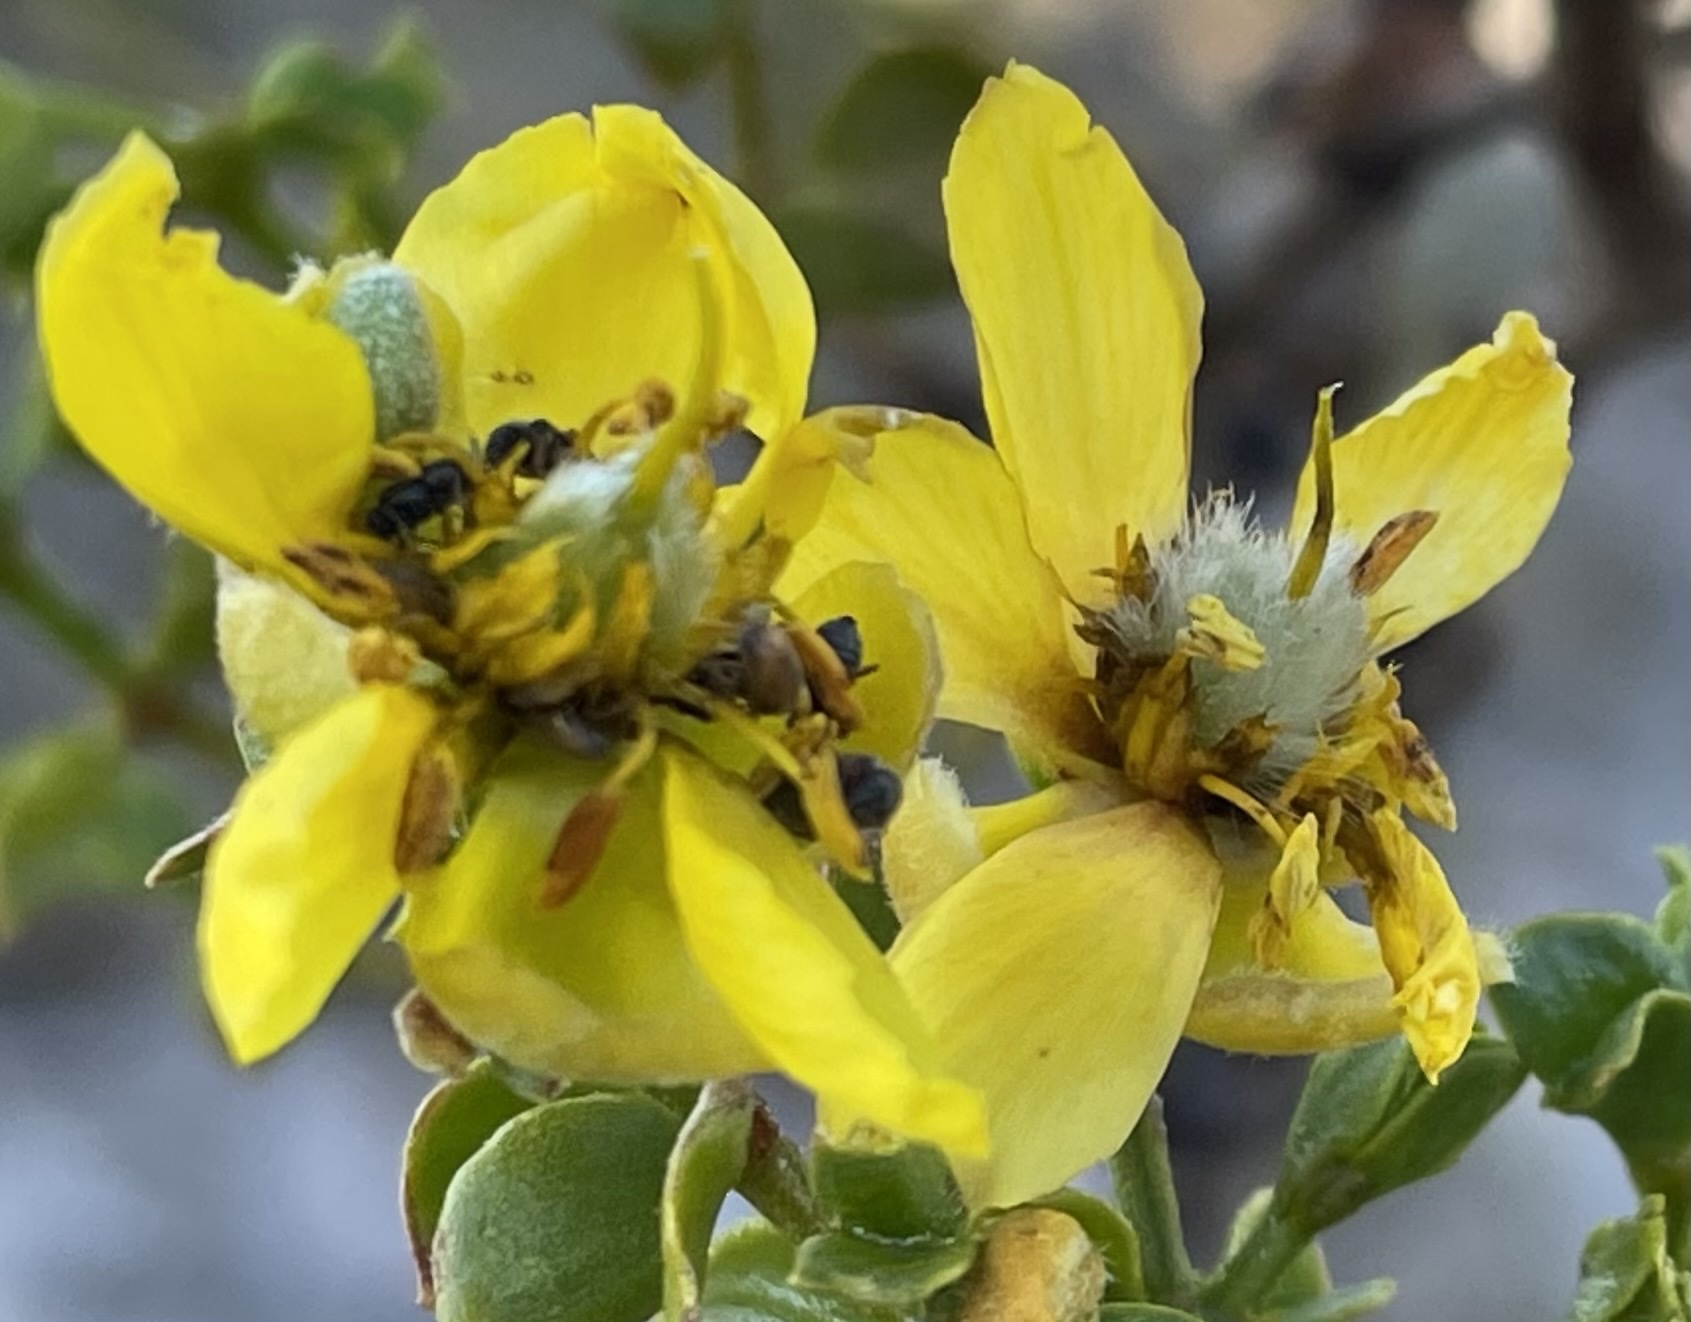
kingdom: Plantae
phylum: Tracheophyta
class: Magnoliopsida
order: Zygophyllales
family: Zygophyllaceae
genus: Larrea
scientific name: Larrea tridentata
